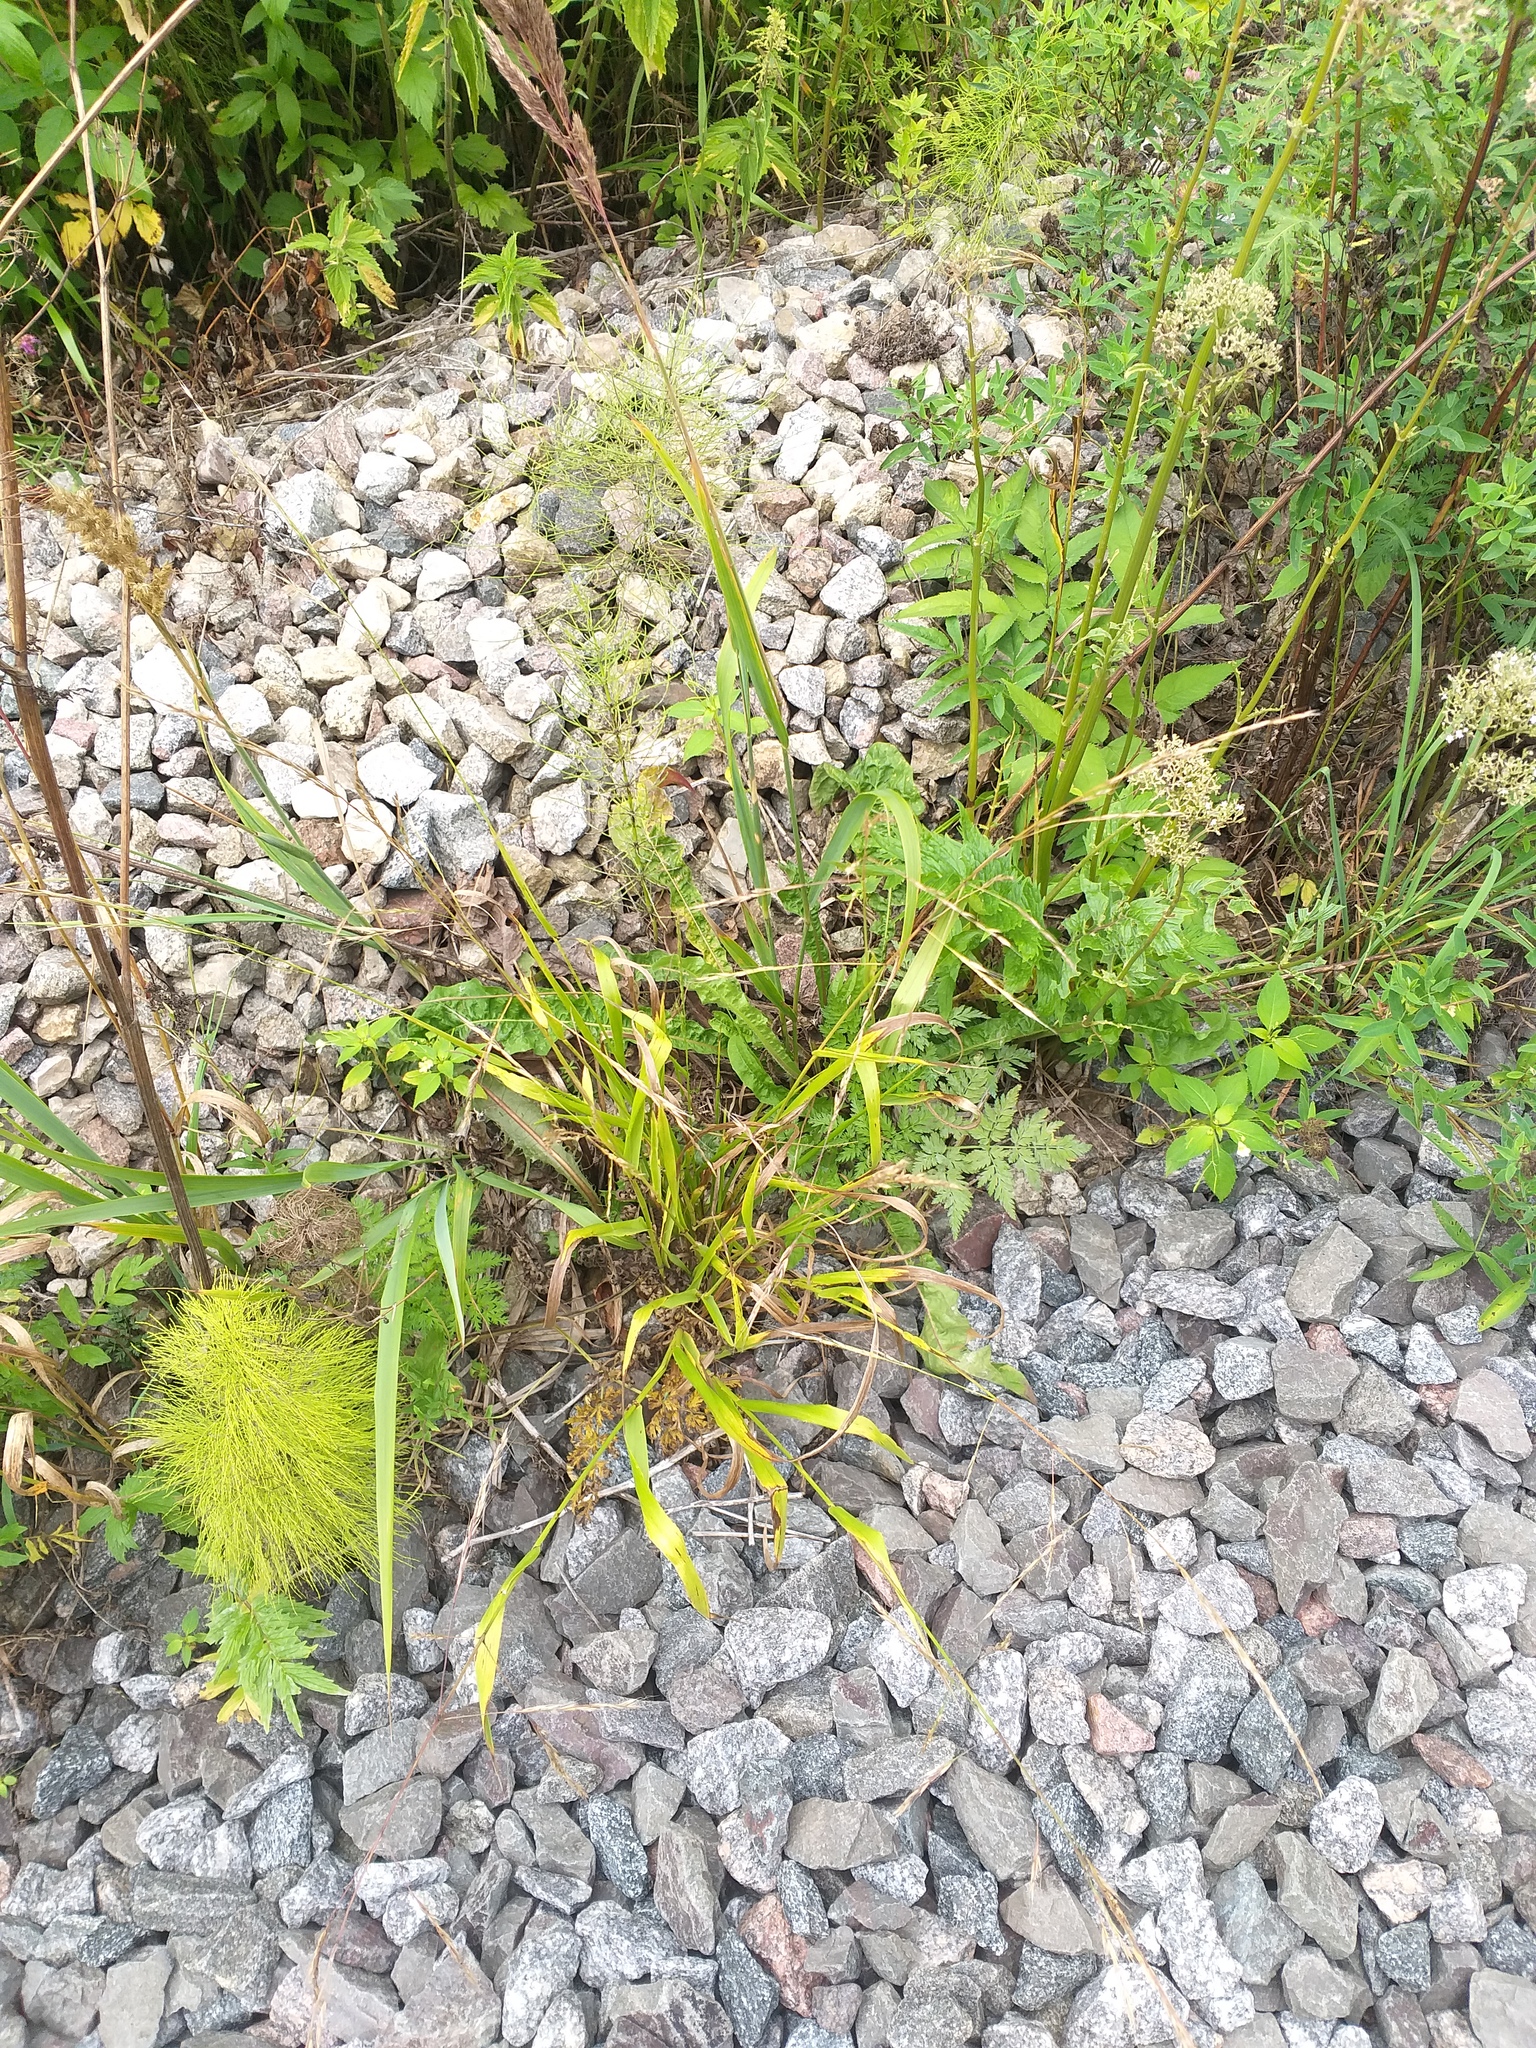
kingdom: Plantae
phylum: Tracheophyta
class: Liliopsida
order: Poales
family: Poaceae
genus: Lolium
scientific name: Lolium giganteum
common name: Giant fescue
